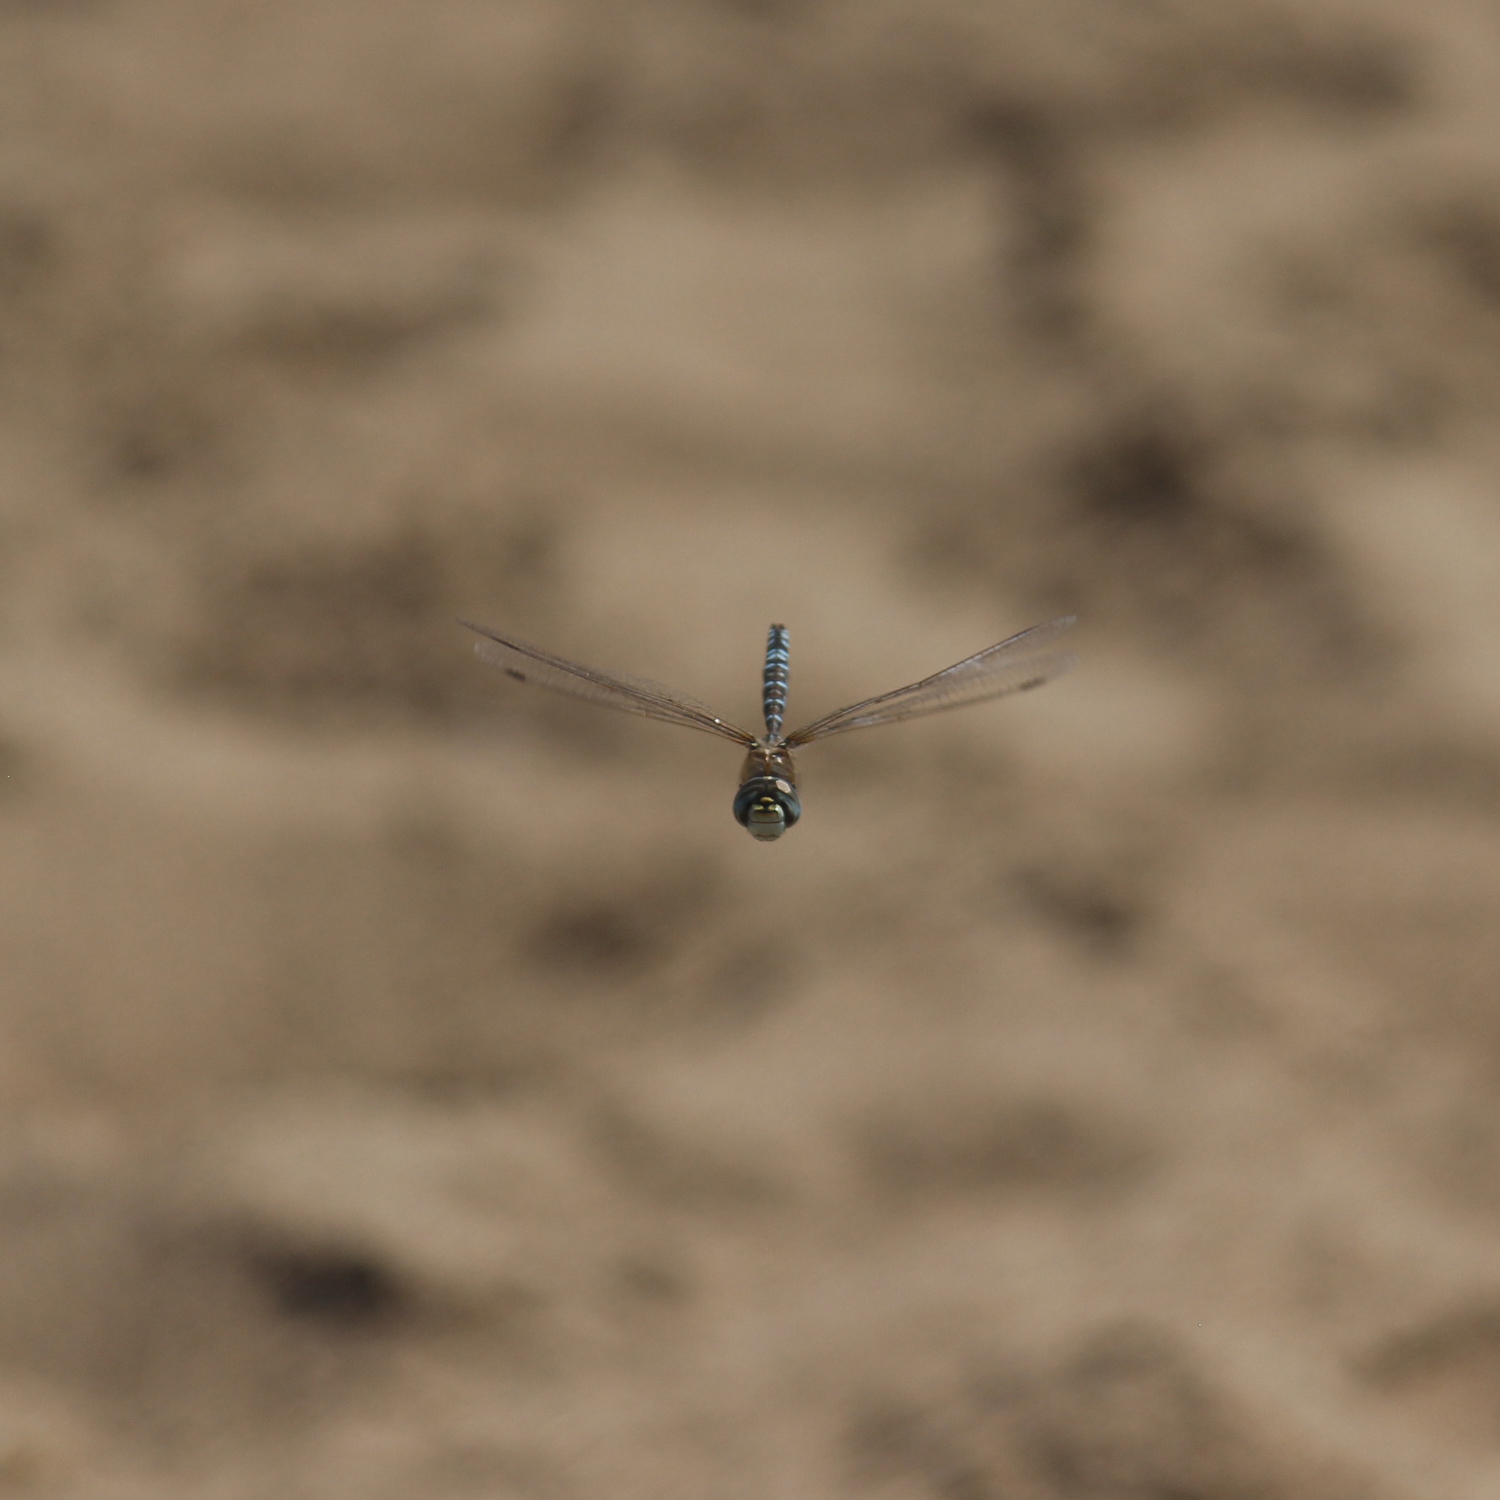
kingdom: Animalia
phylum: Arthropoda
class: Insecta
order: Odonata
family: Aeshnidae
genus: Rhionaeschna
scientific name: Rhionaeschna elsia
